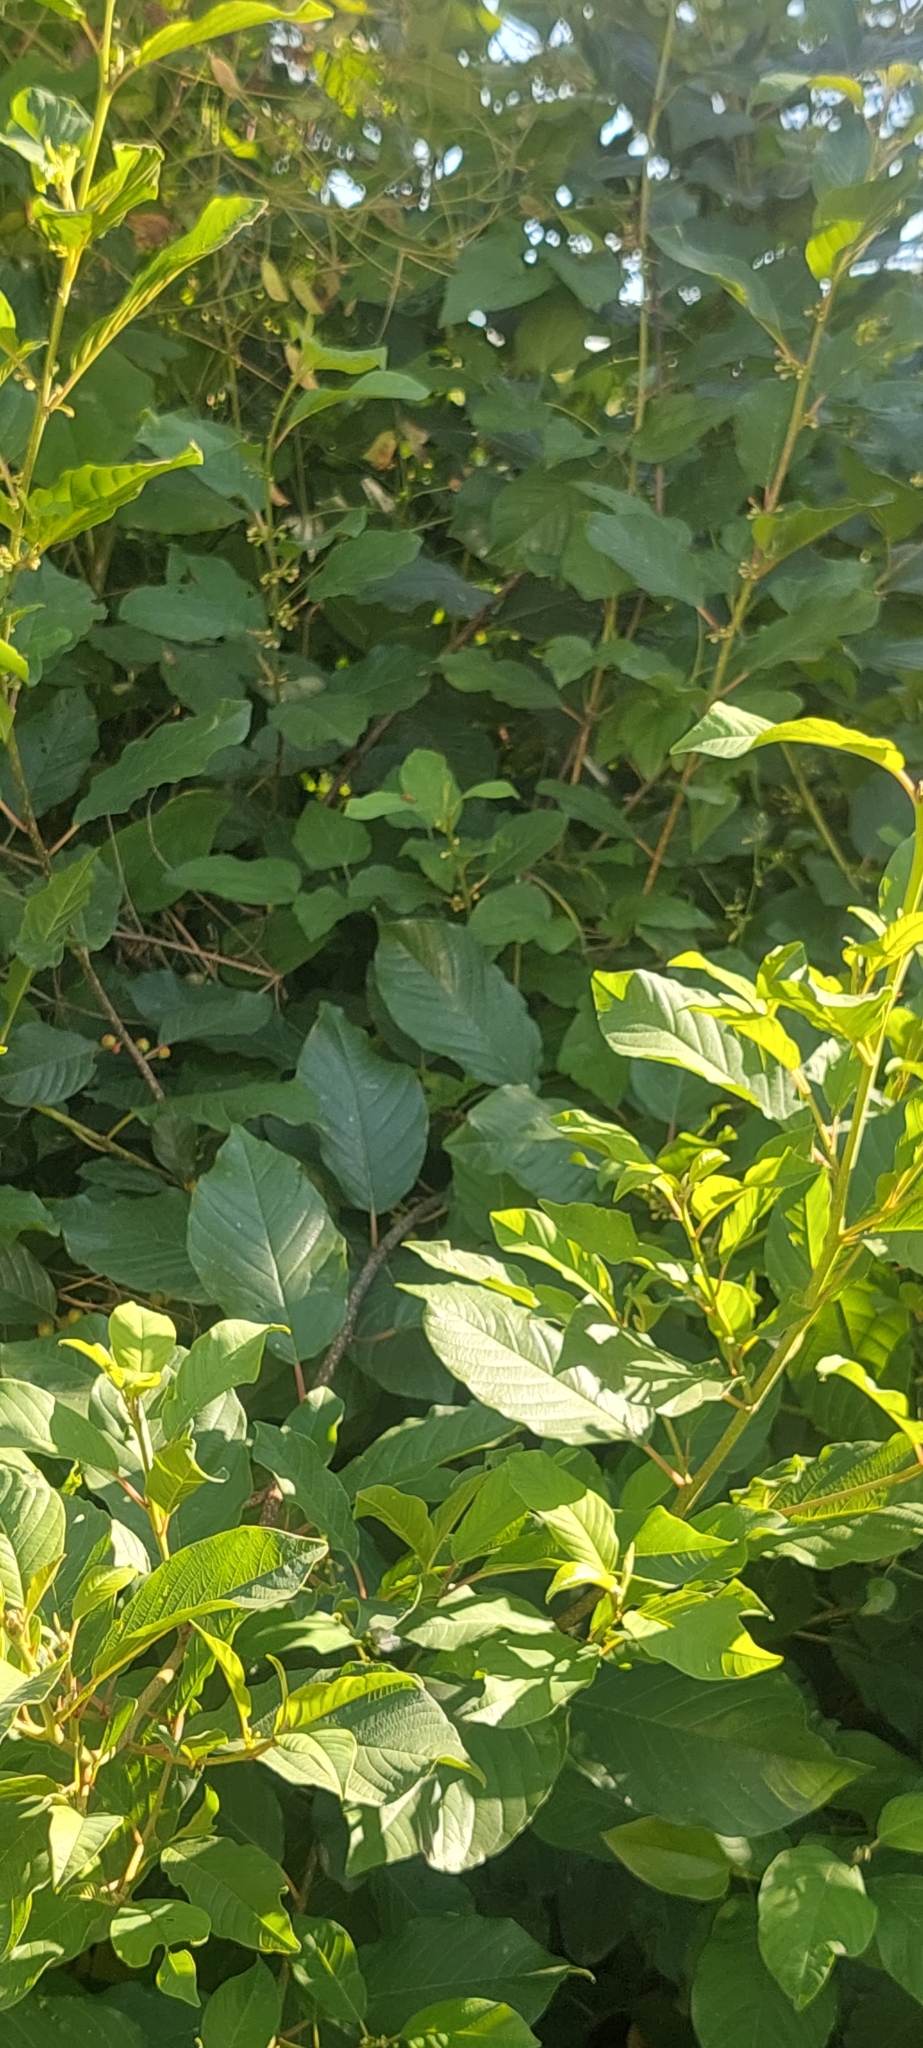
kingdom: Plantae
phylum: Tracheophyta
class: Magnoliopsida
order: Rosales
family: Rhamnaceae
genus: Frangula
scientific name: Frangula alnus
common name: Alder buckthorn
